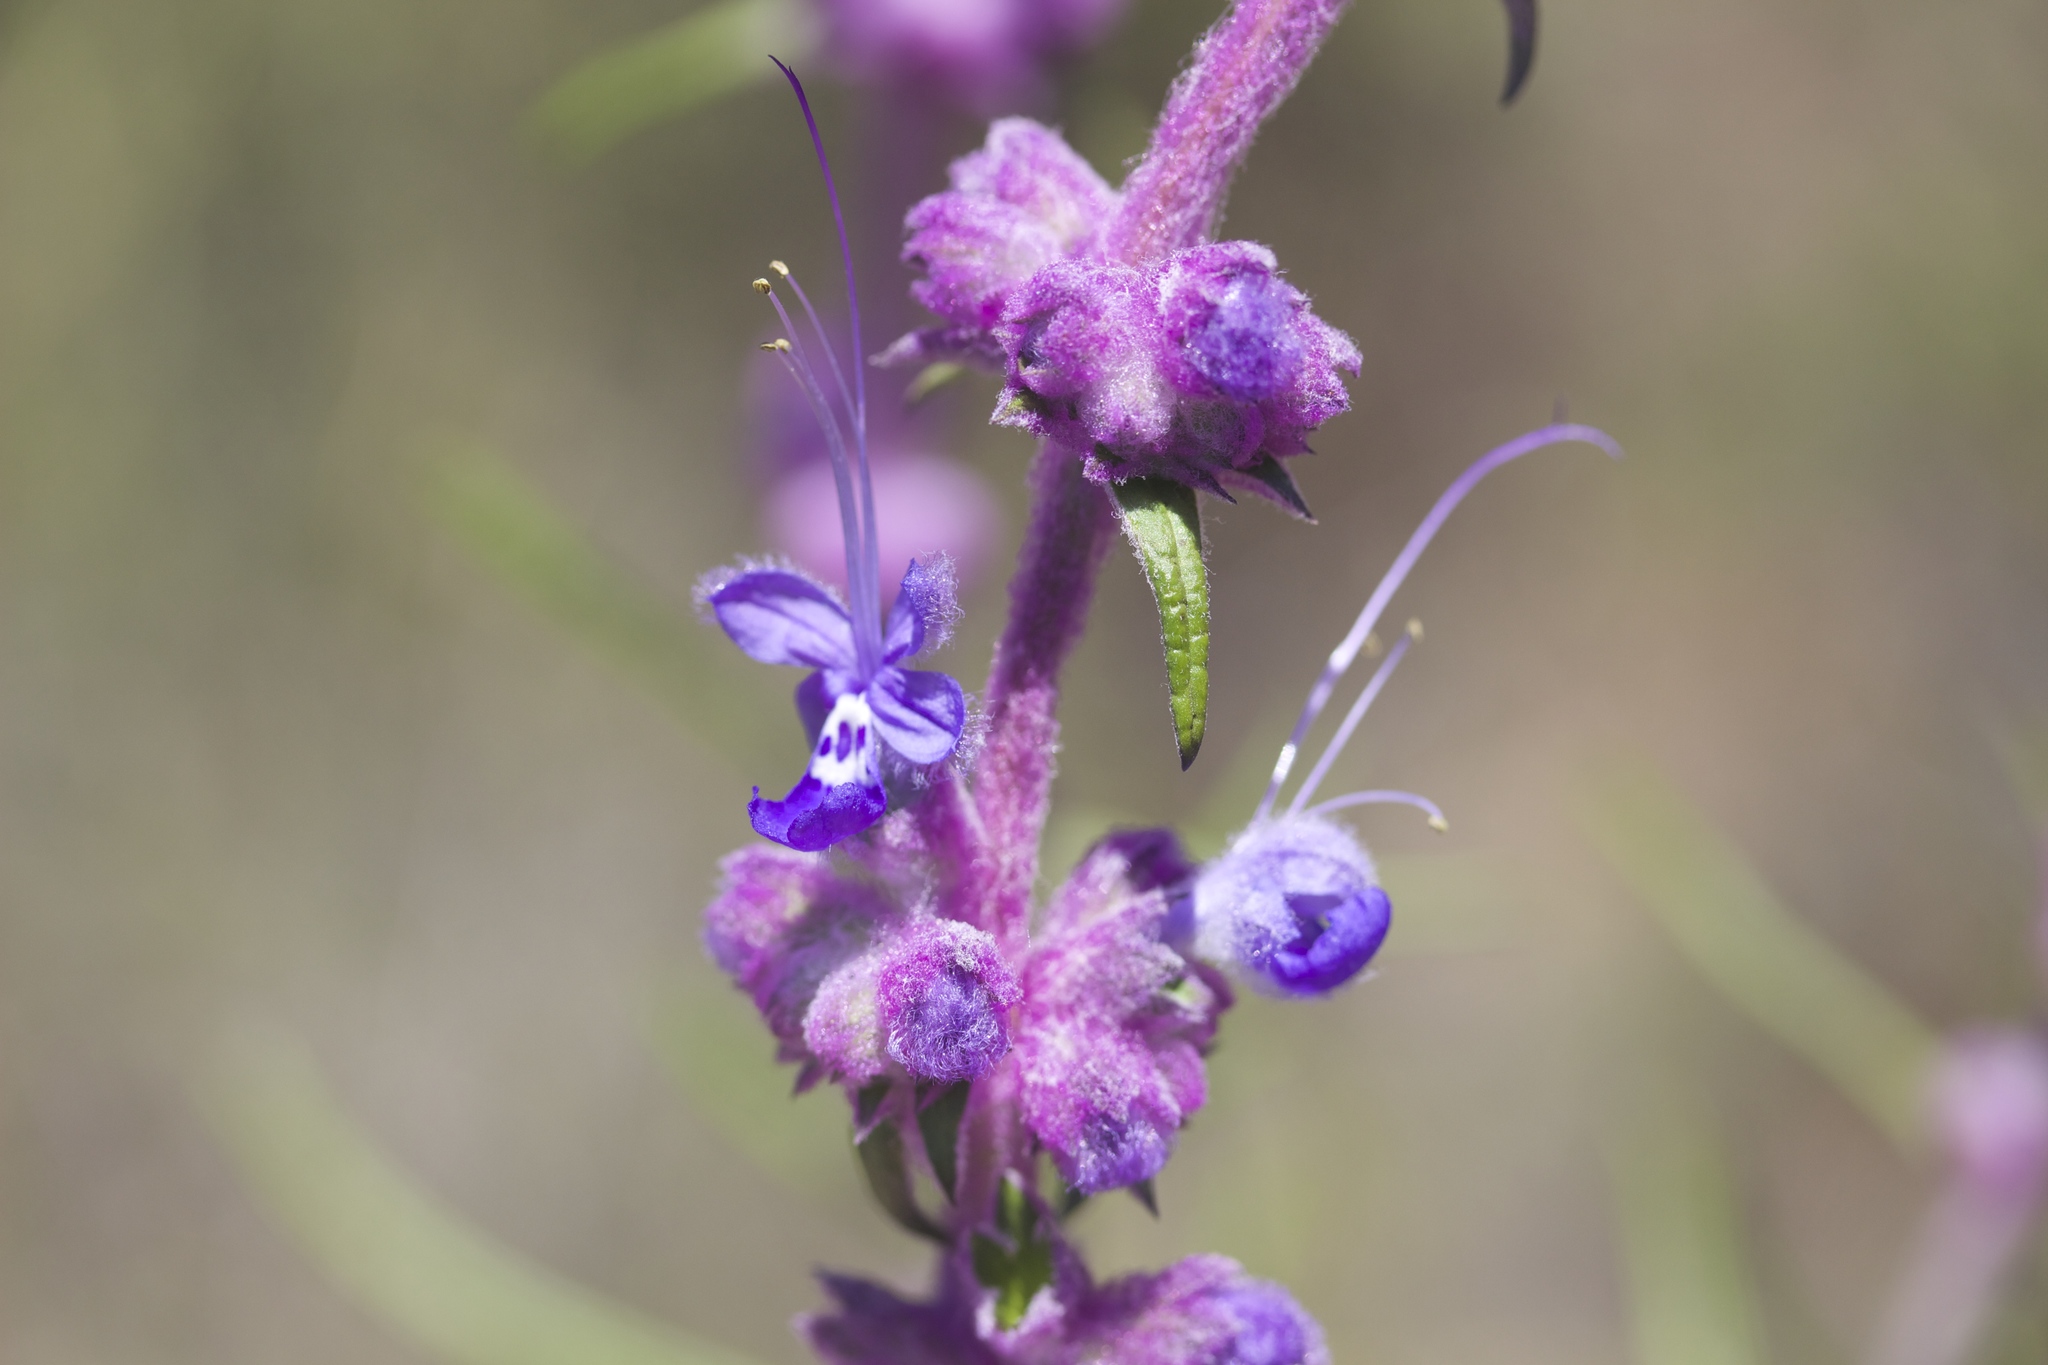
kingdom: Plantae
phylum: Tracheophyta
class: Magnoliopsida
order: Lamiales
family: Lamiaceae
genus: Trichostema
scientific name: Trichostema lanatum
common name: Woolly bluecurls
